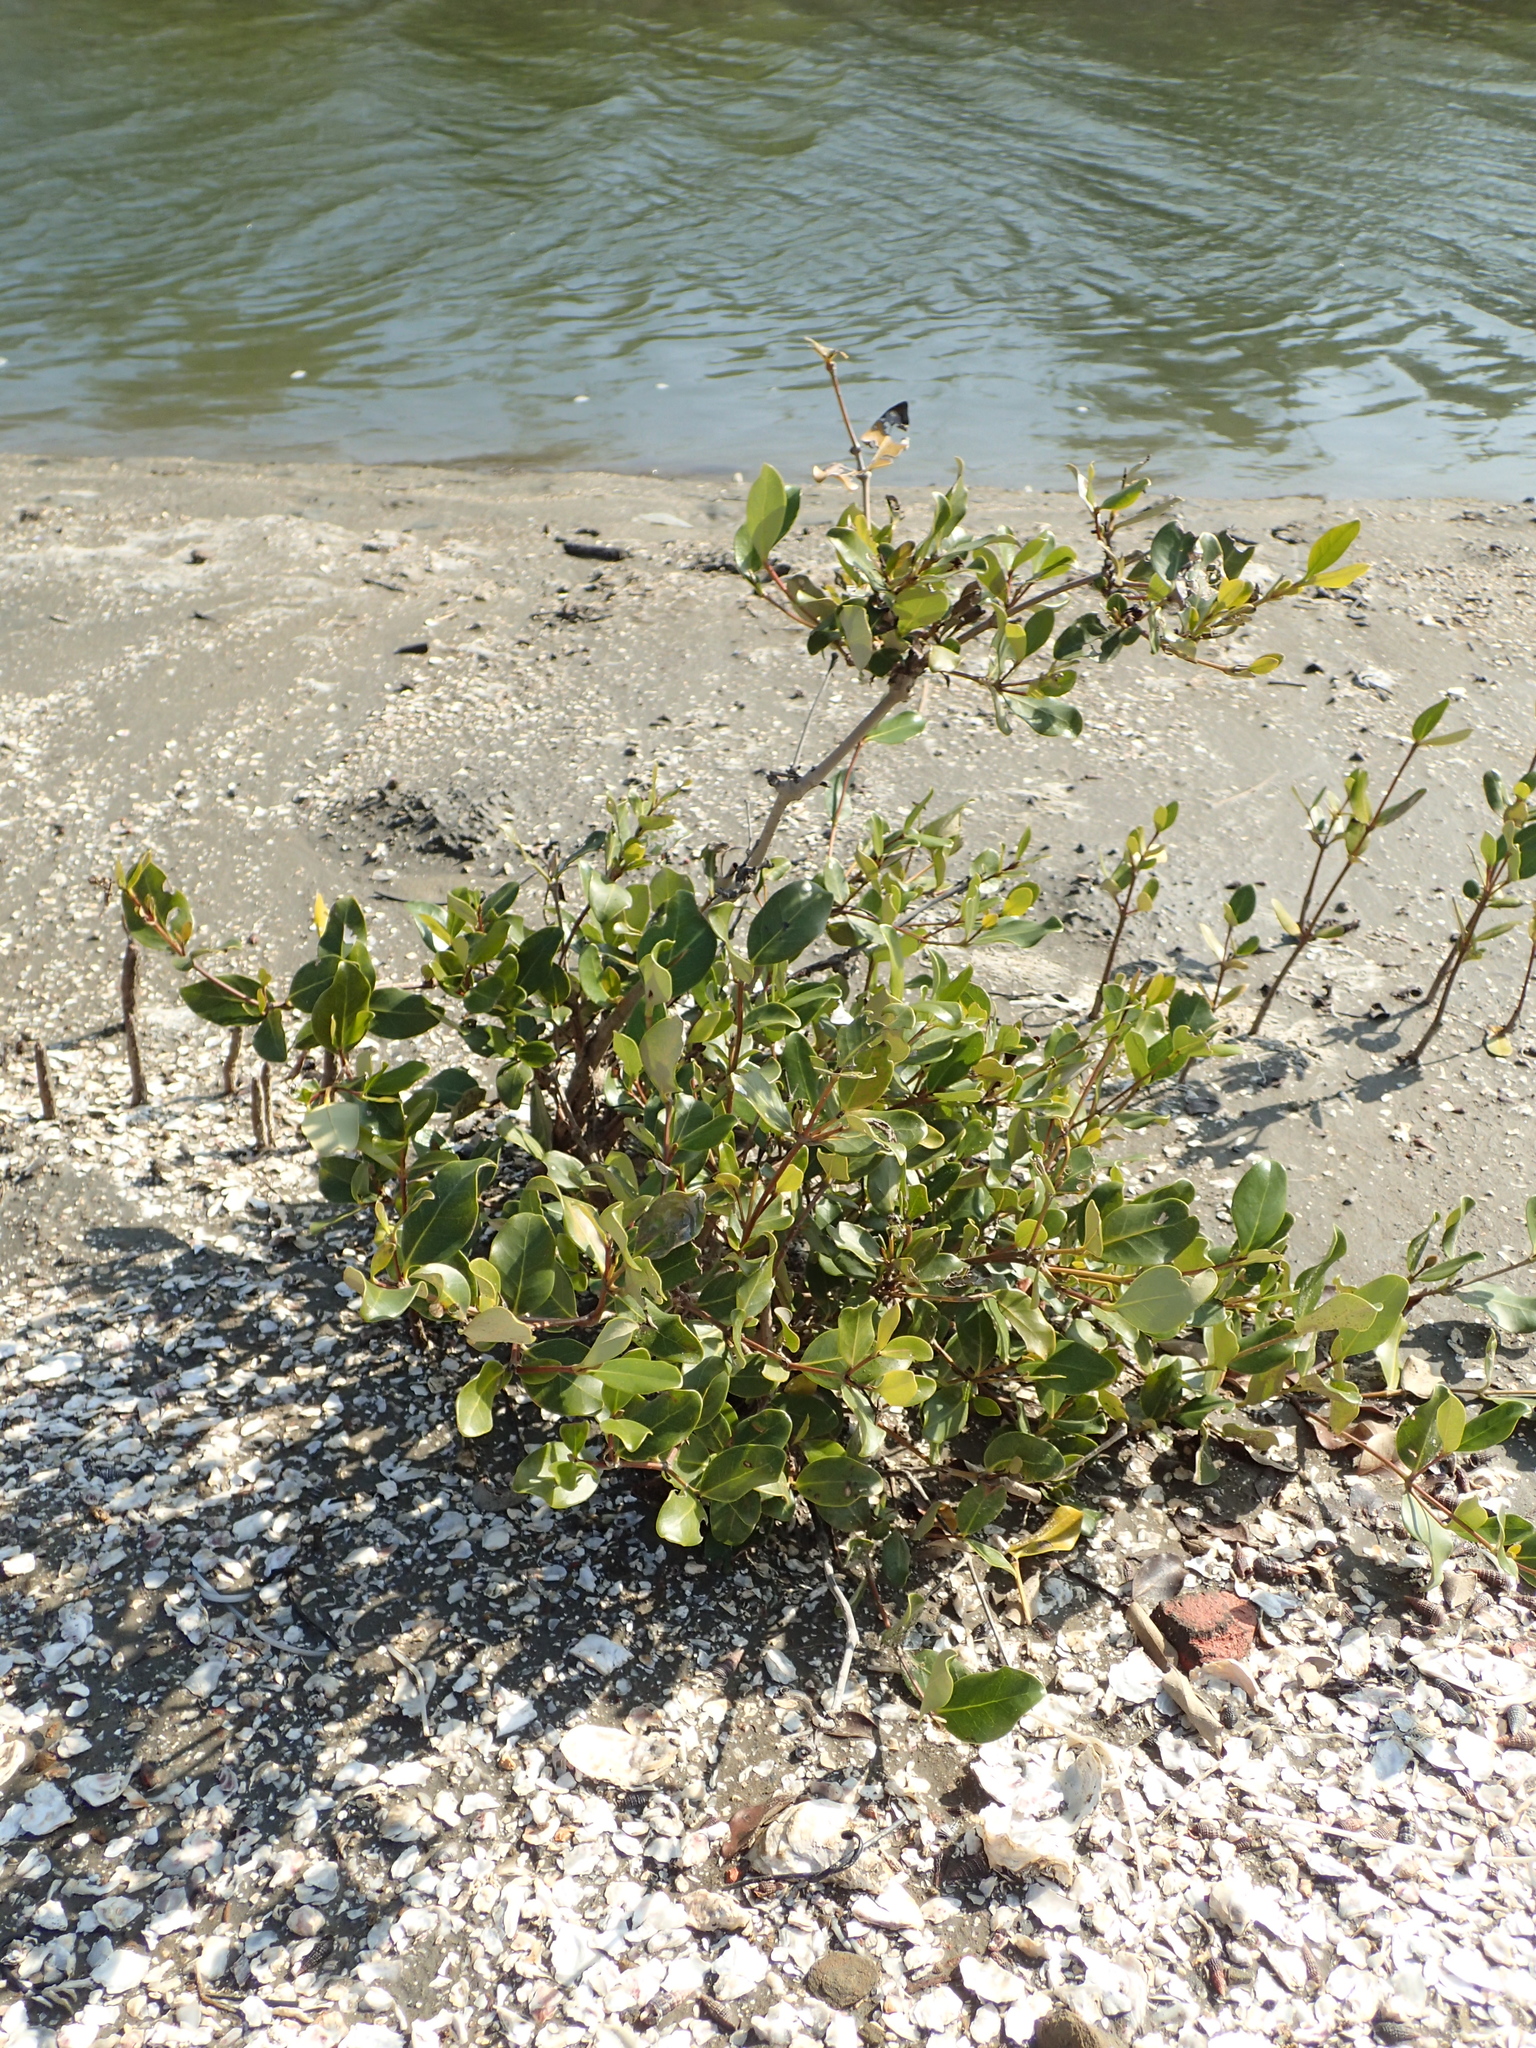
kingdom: Plantae
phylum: Tracheophyta
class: Magnoliopsida
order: Lamiales
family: Acanthaceae
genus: Avicennia
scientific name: Avicennia marina
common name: Gray mangrove
